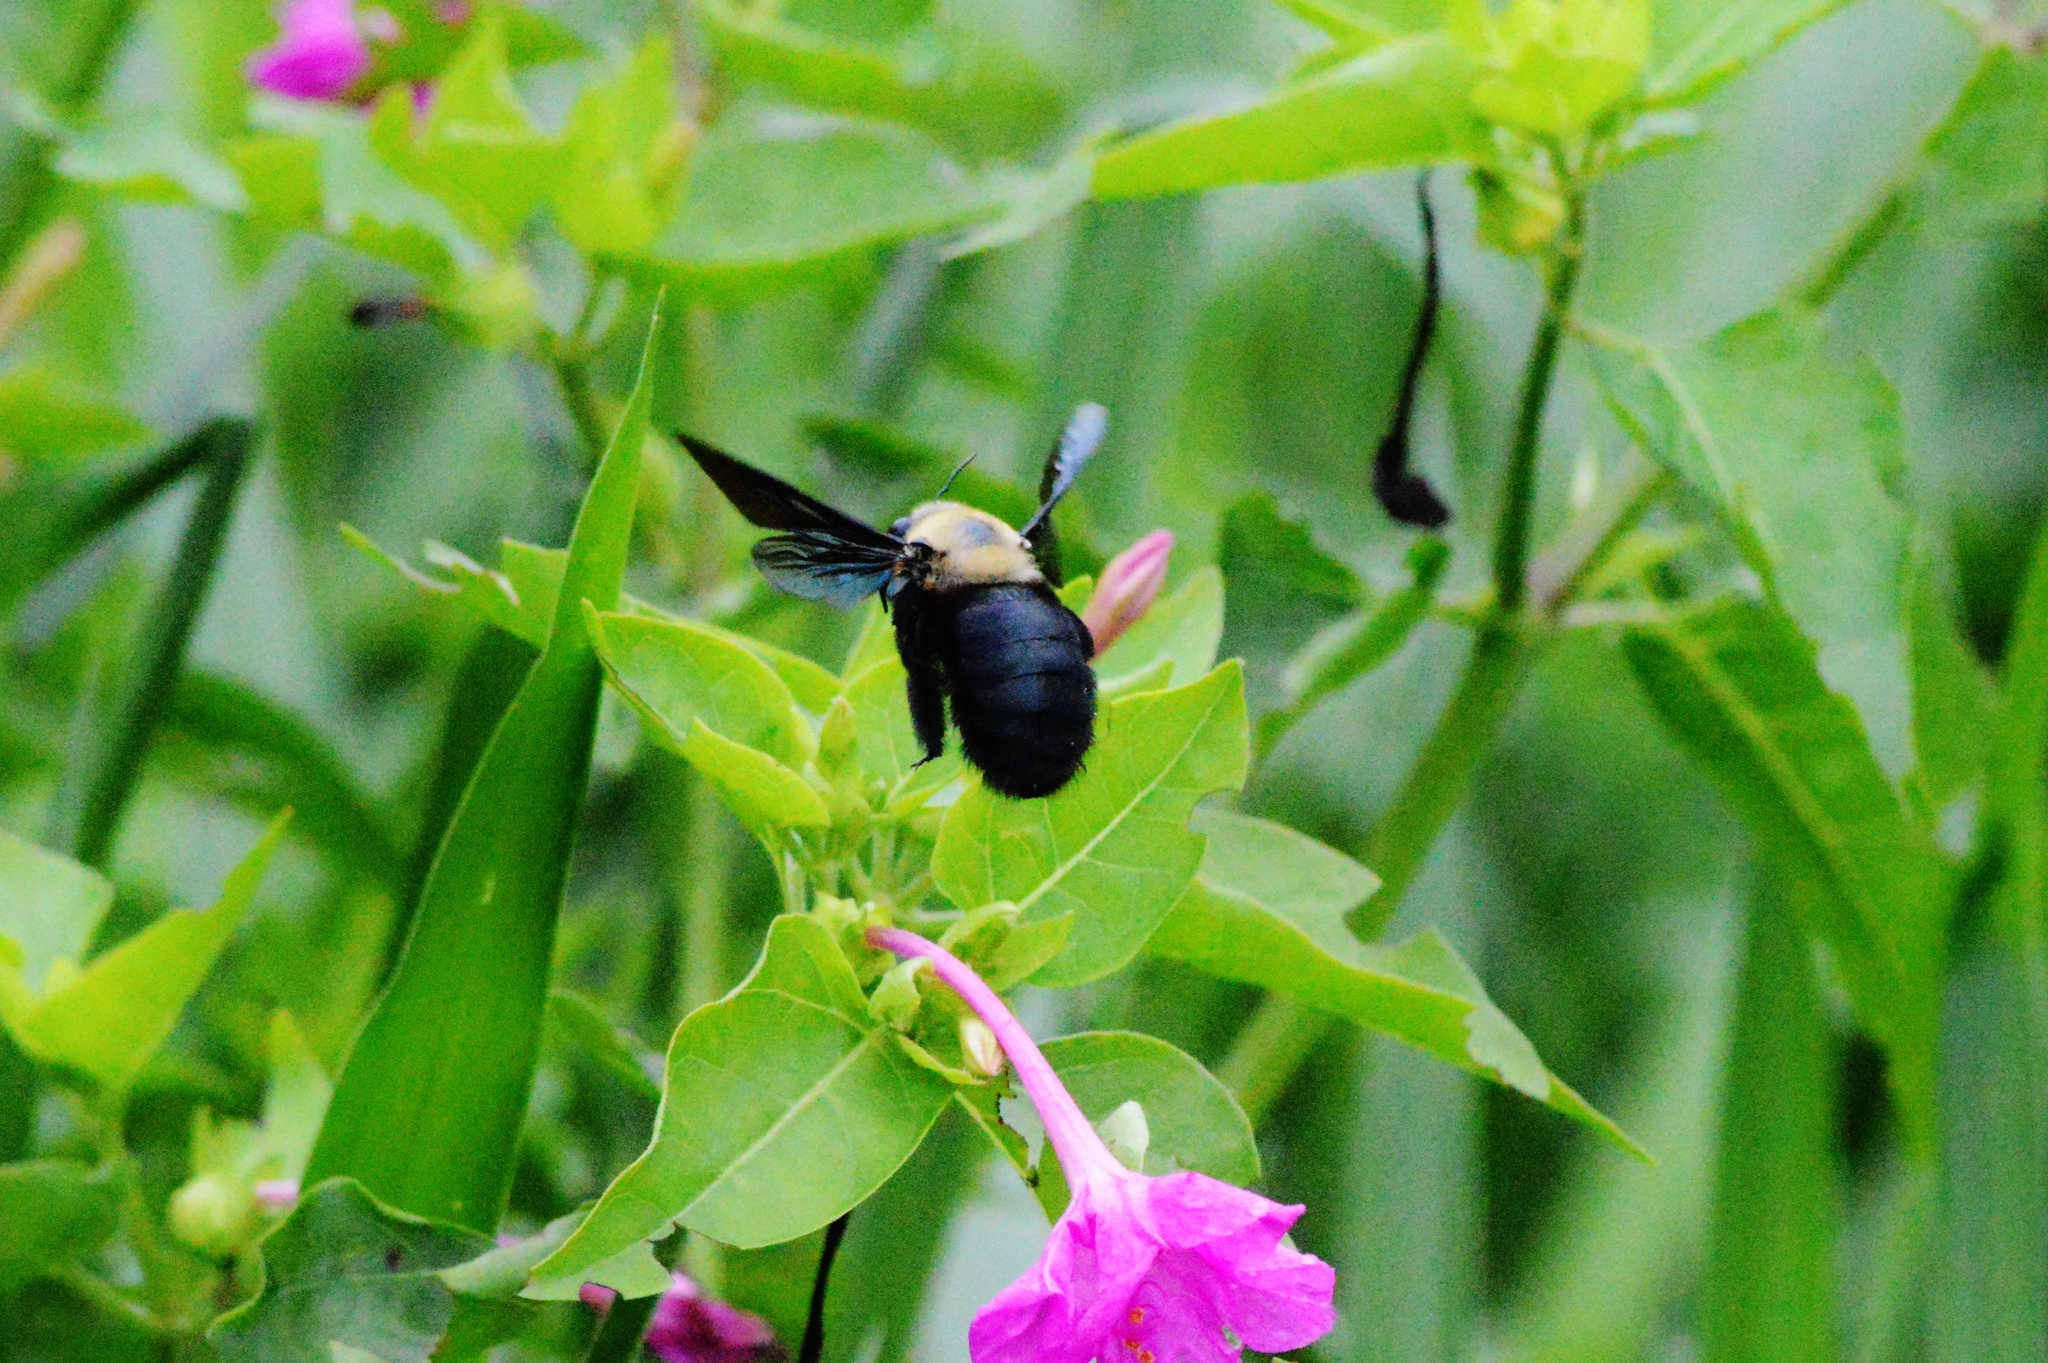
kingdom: Animalia
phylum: Arthropoda
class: Insecta
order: Hymenoptera
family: Apidae
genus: Xylocopa
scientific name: Xylocopa grisescens
